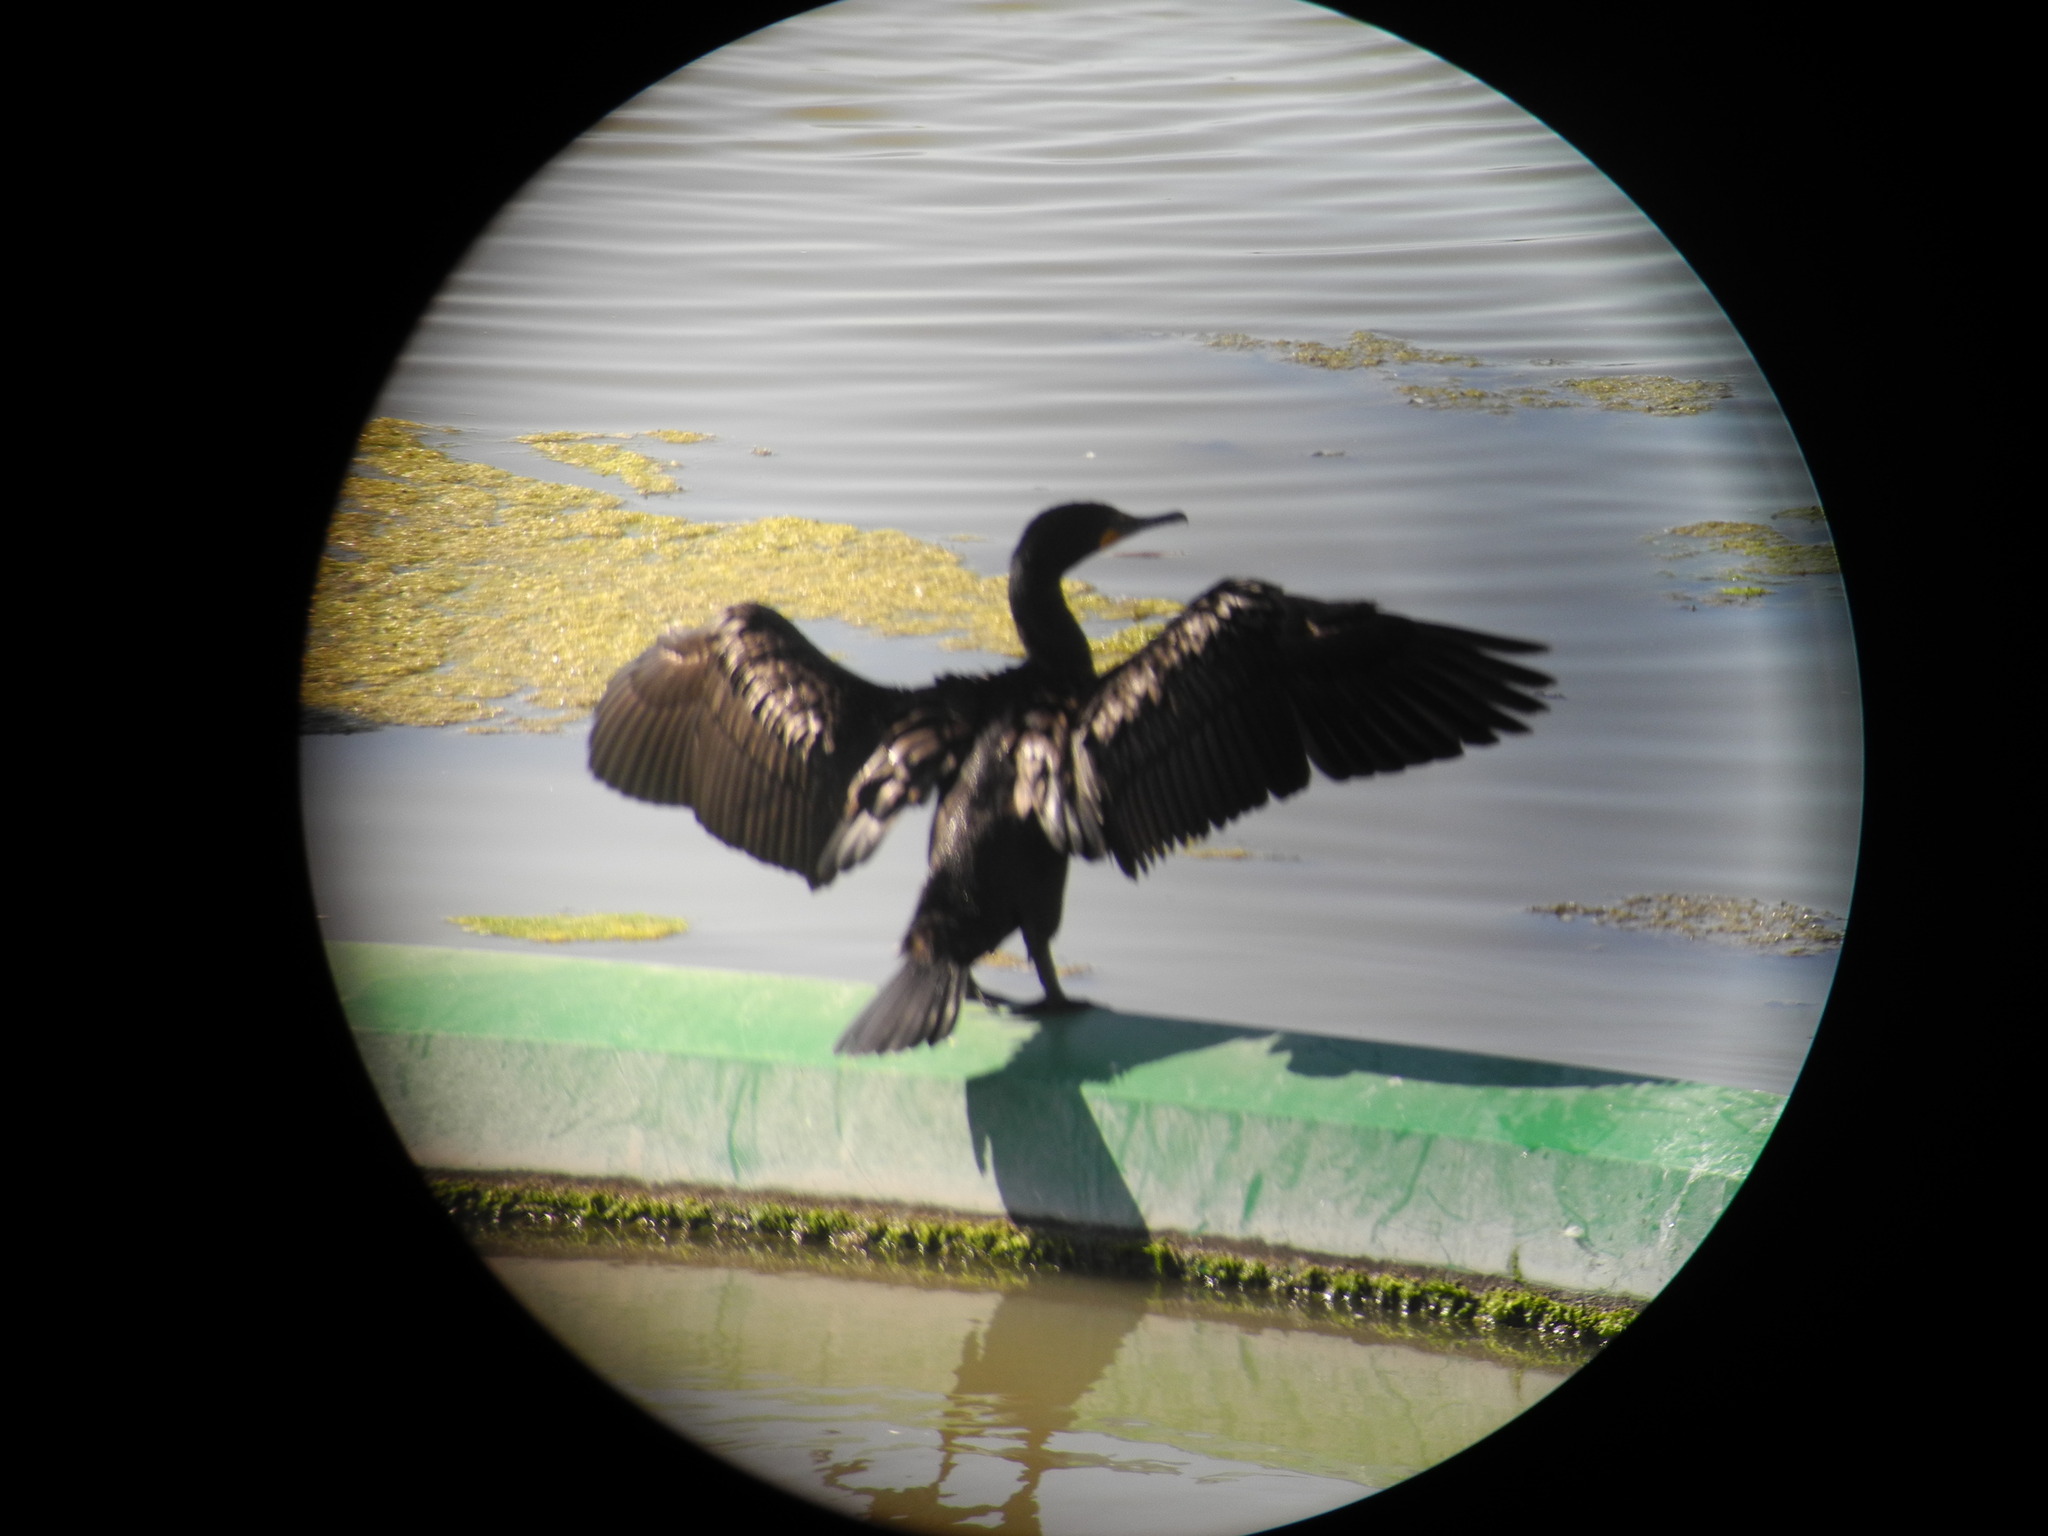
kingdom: Animalia
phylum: Chordata
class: Aves
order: Suliformes
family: Phalacrocoracidae
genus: Phalacrocorax
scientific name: Phalacrocorax auritus
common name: Double-crested cormorant
